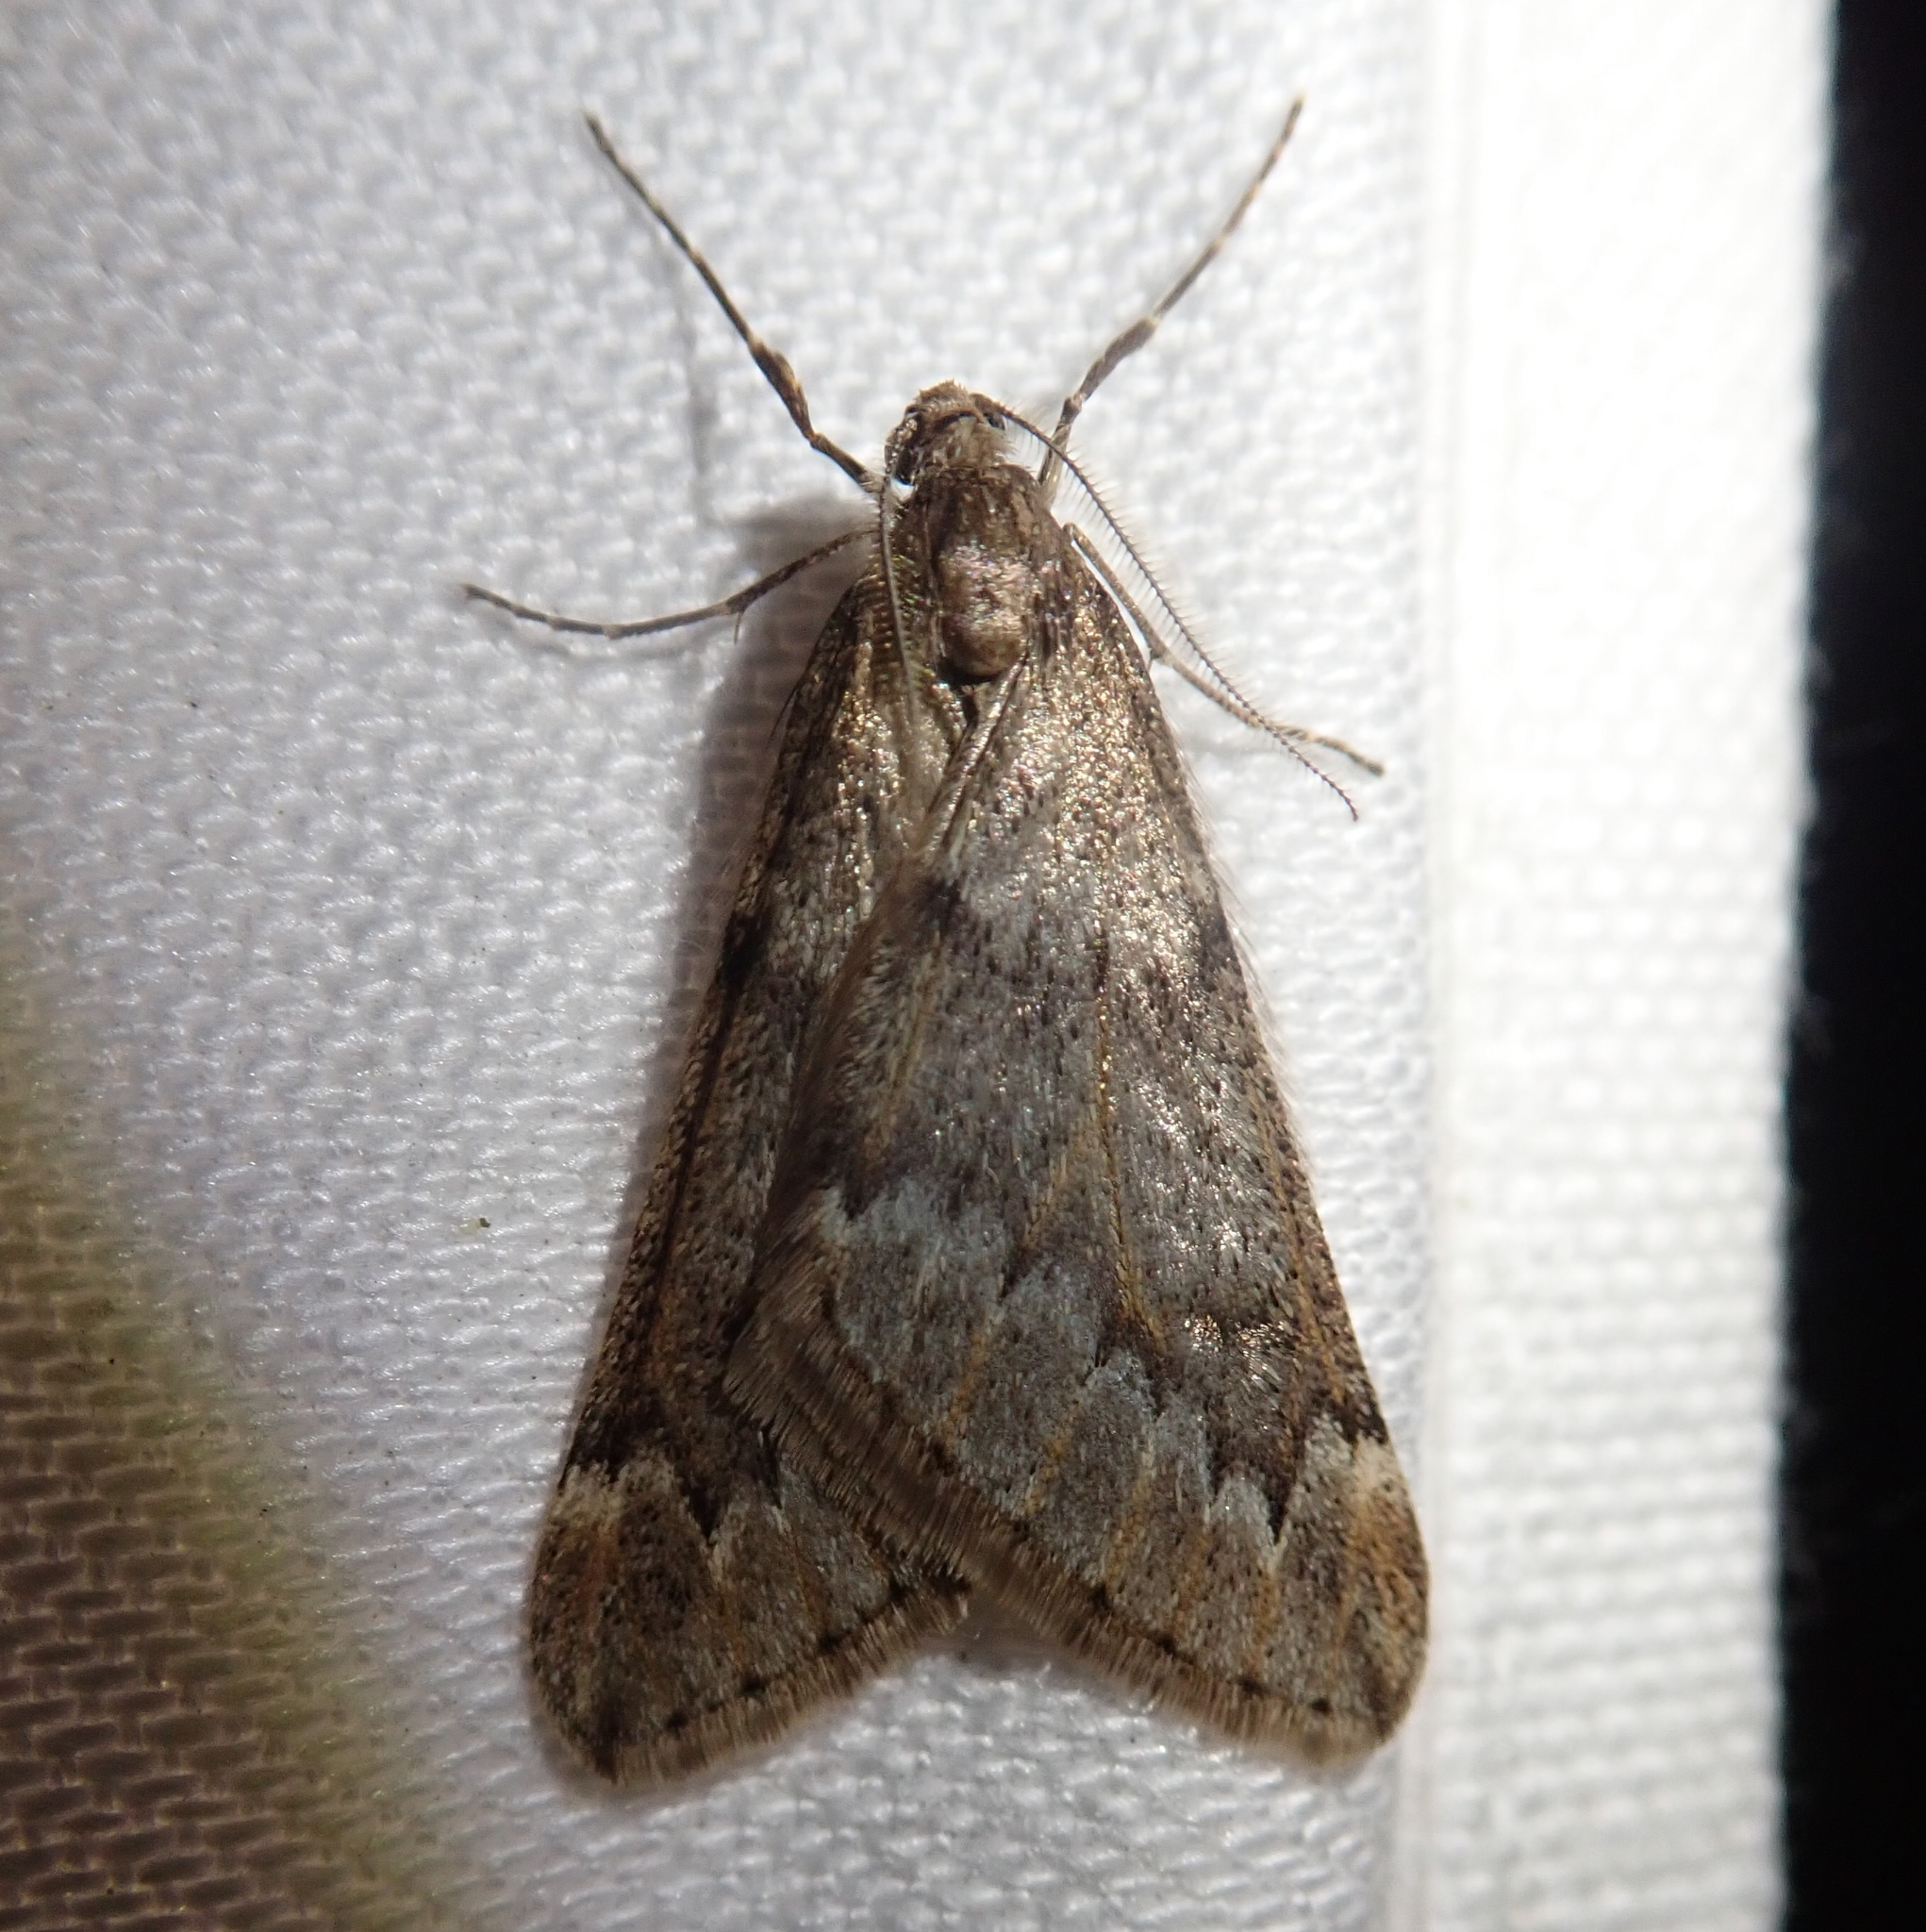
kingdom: Animalia
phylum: Arthropoda
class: Insecta
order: Lepidoptera
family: Geometridae
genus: Alsophila
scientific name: Alsophila aescularia
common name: March moth
